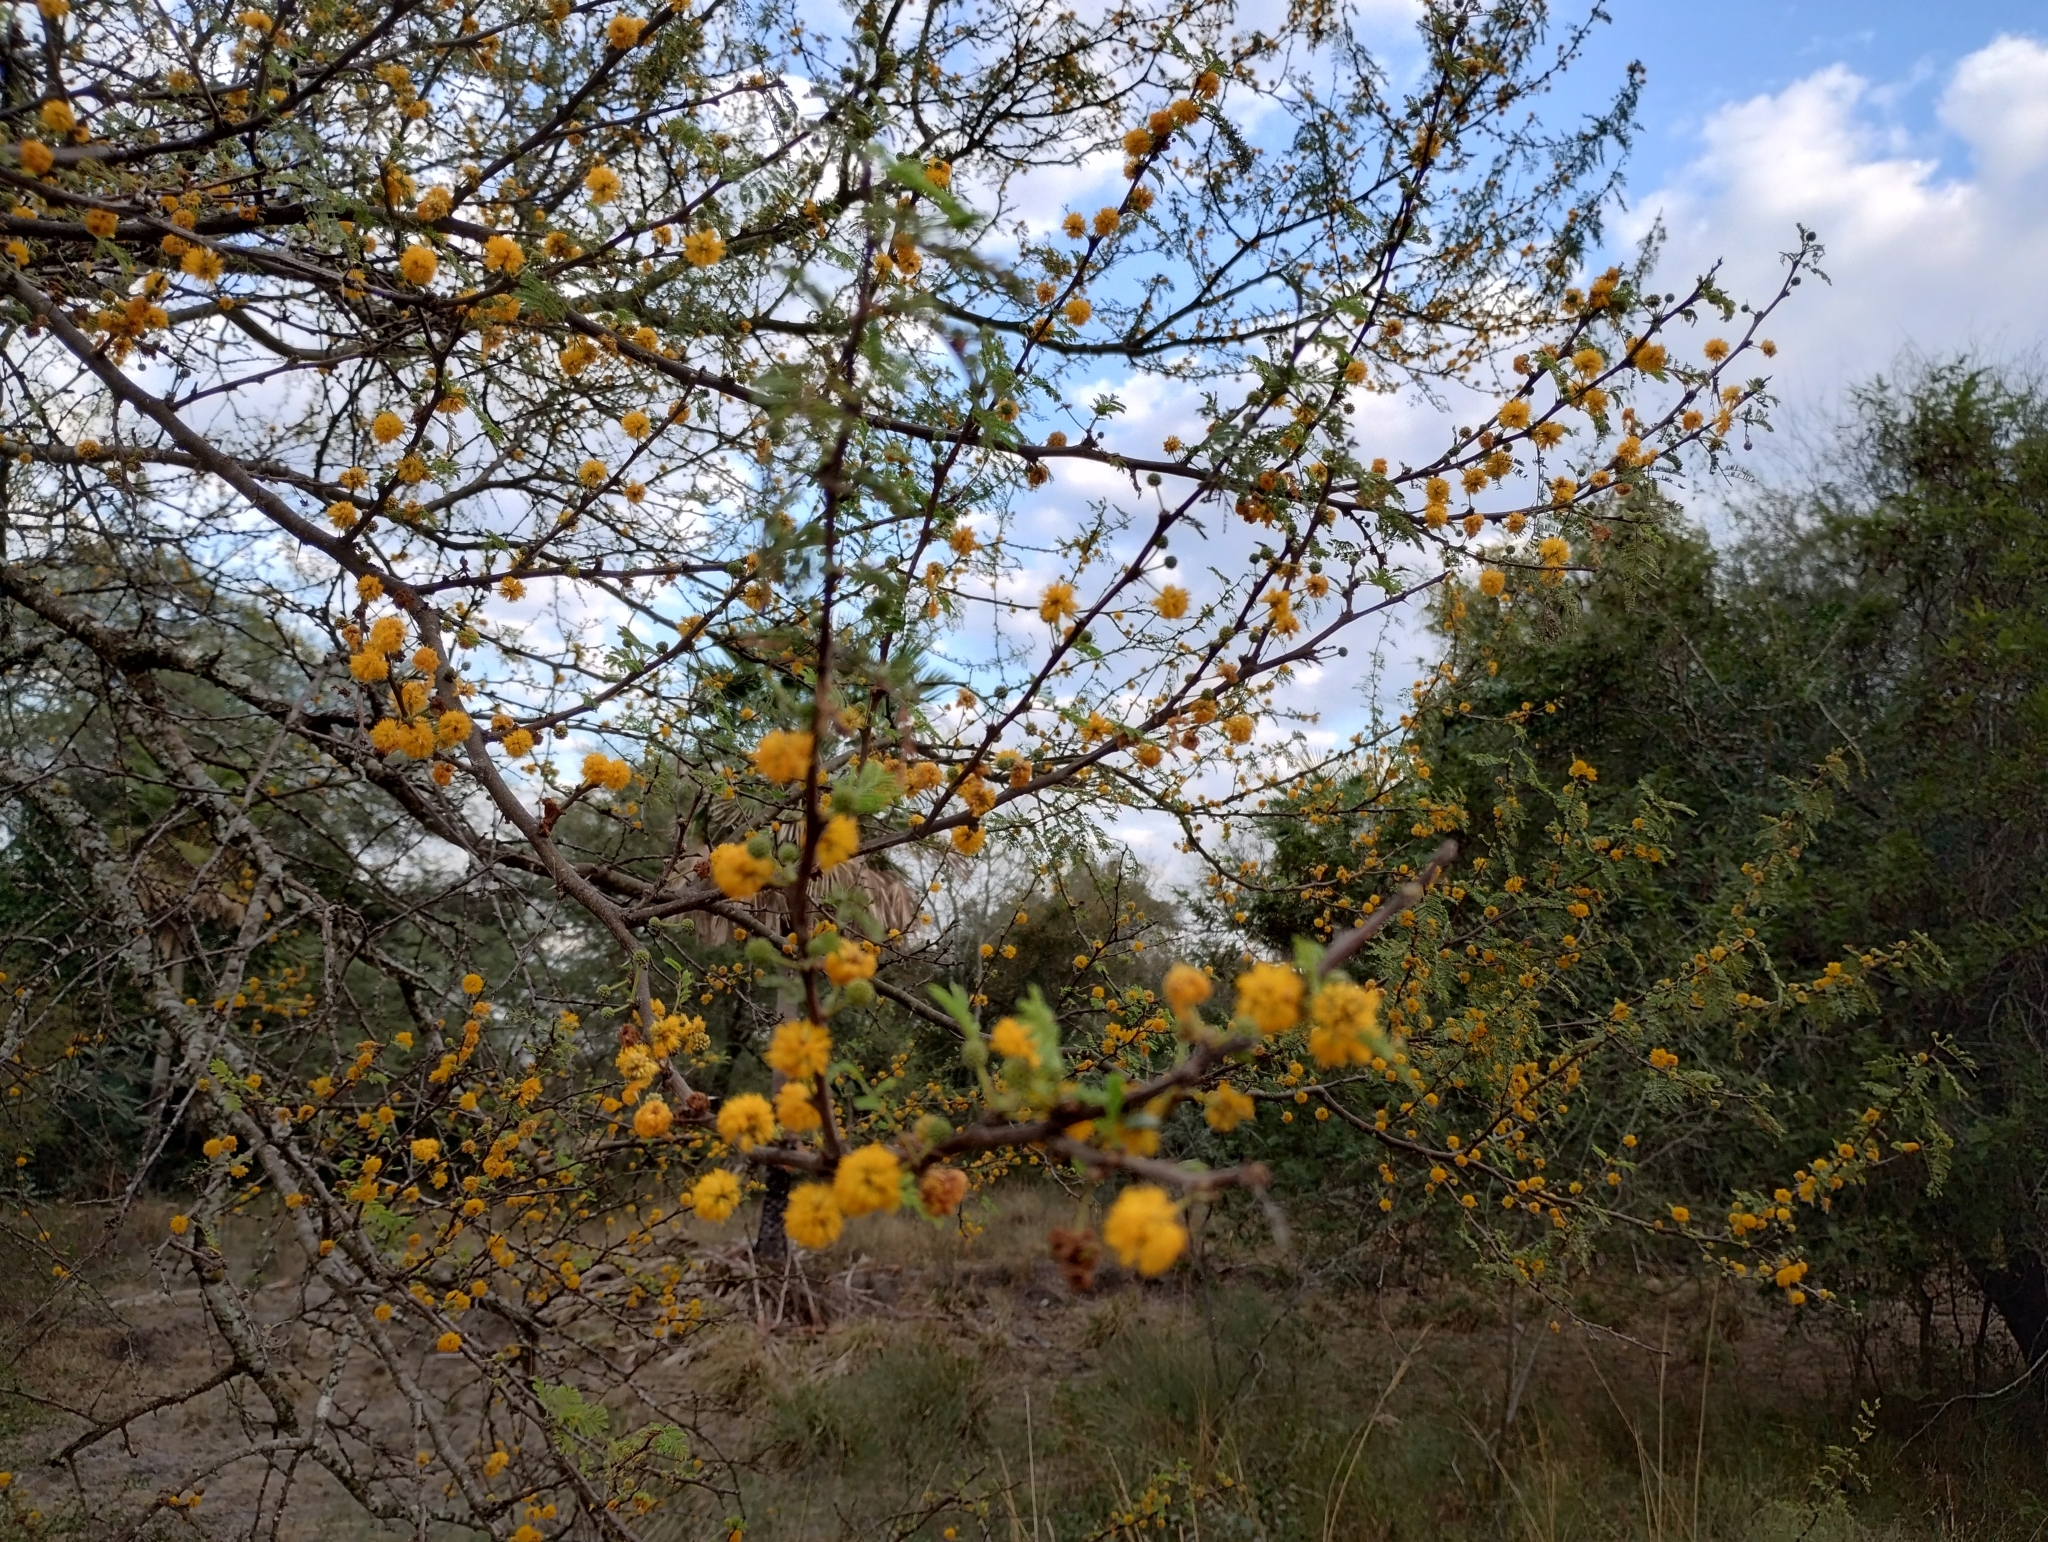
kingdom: Plantae
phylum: Tracheophyta
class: Magnoliopsida
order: Fabales
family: Fabaceae
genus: Vachellia
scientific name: Vachellia caven
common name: Roman cassie
